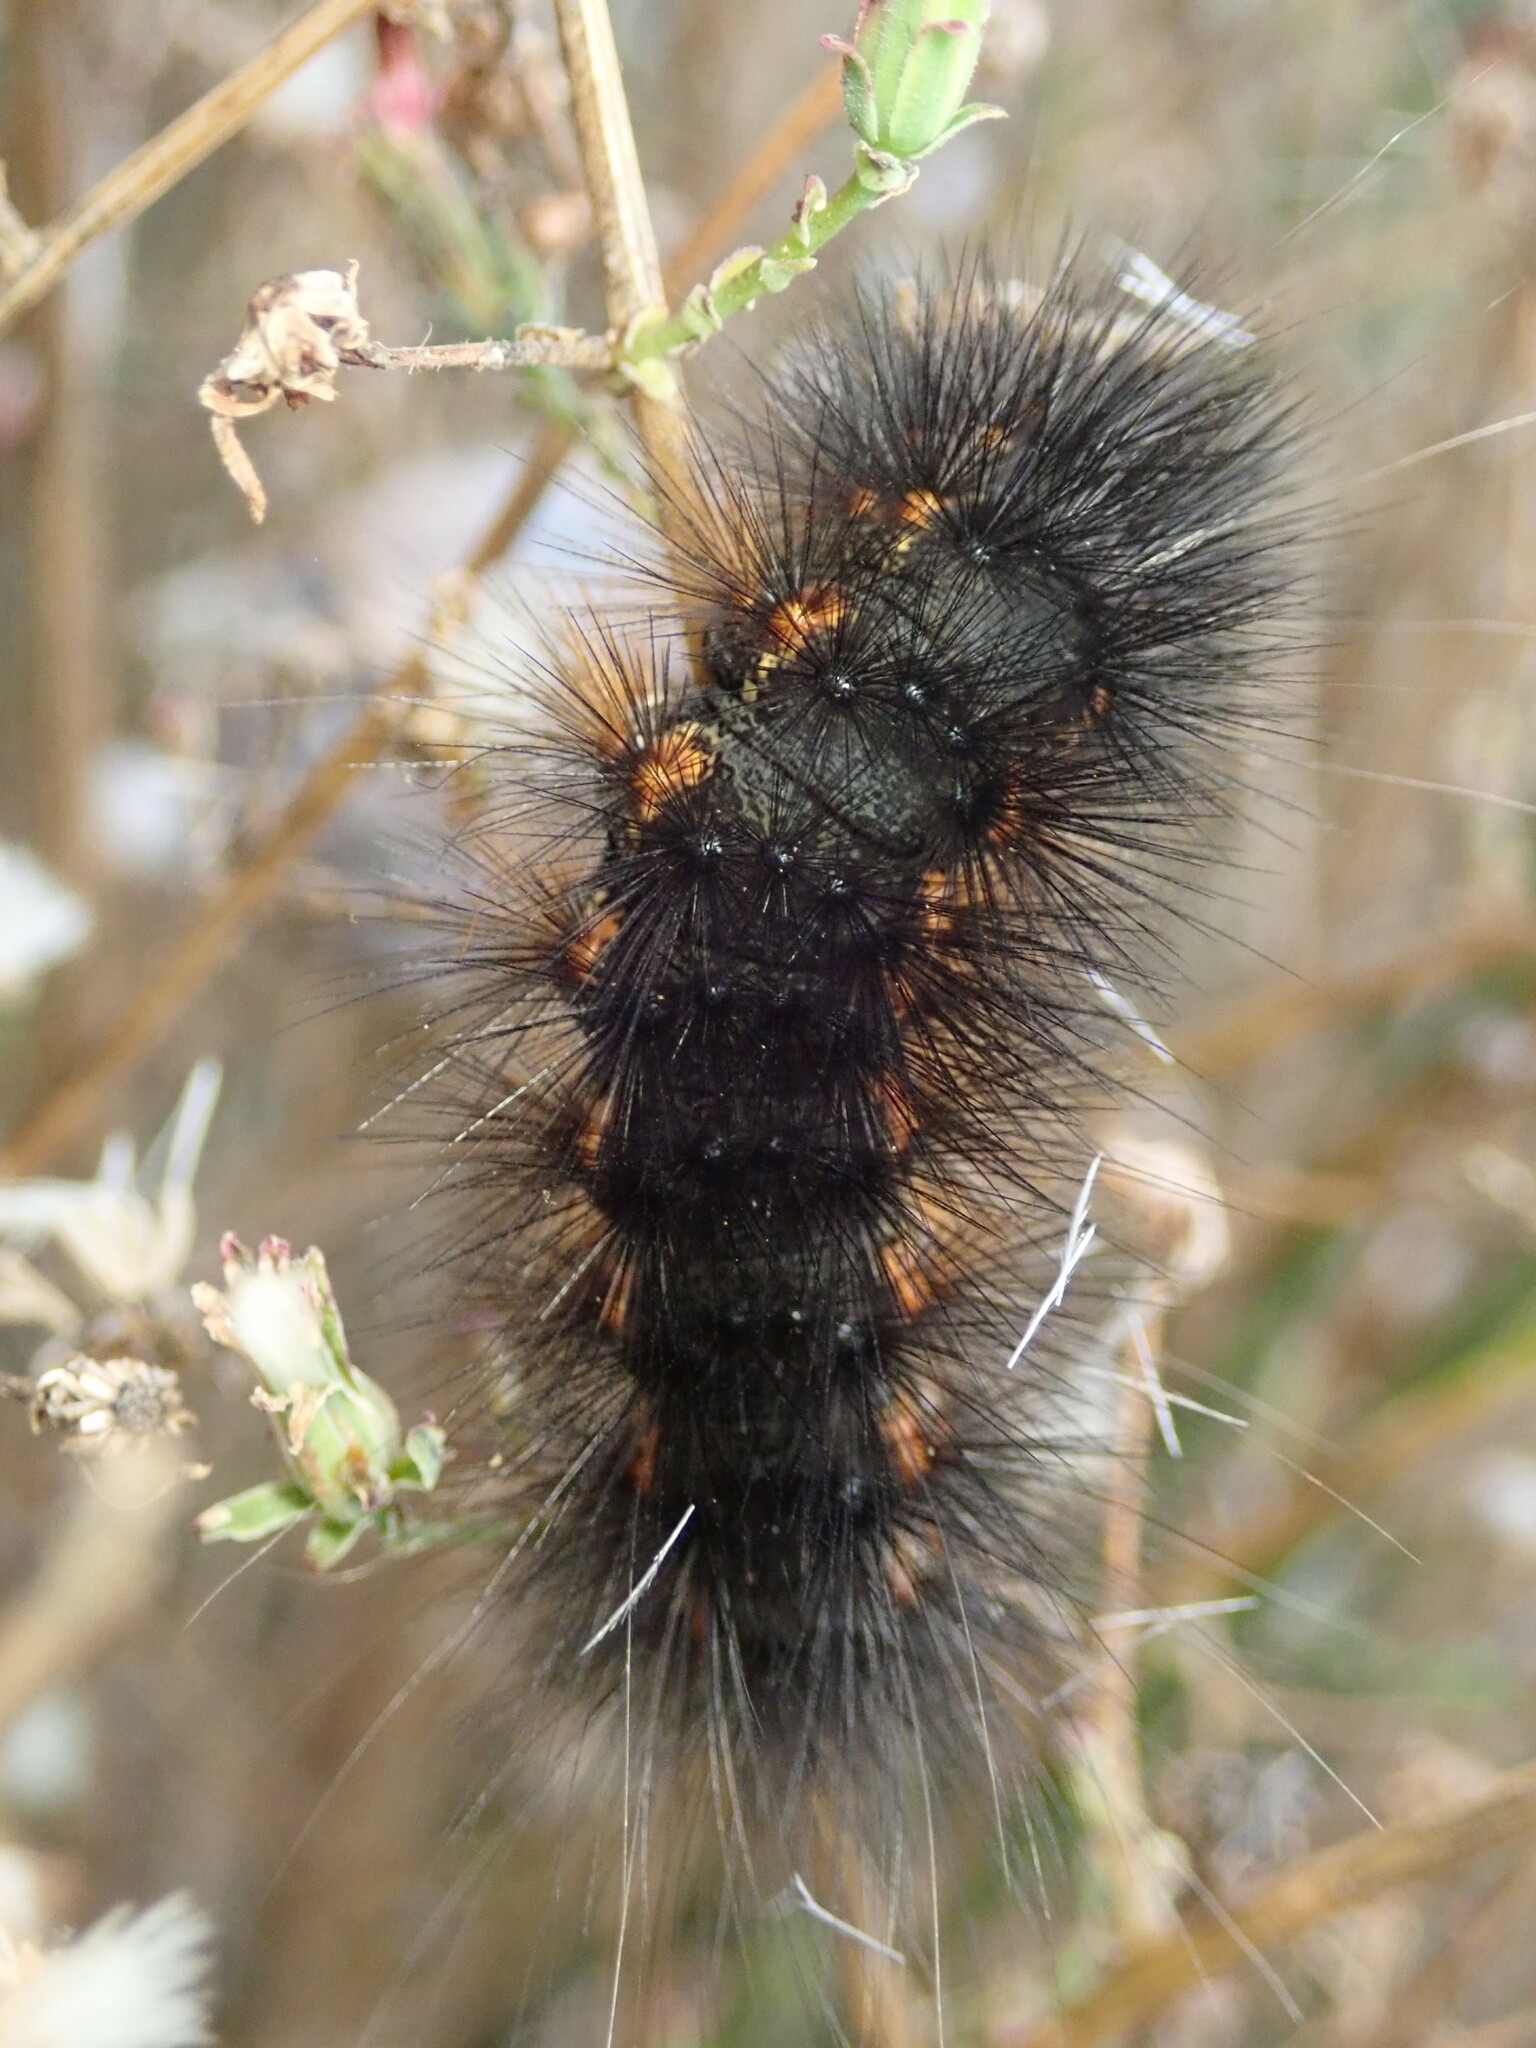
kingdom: Animalia
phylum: Arthropoda
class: Insecta
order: Lepidoptera
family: Erebidae
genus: Estigmene
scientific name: Estigmene acrea
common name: Salt marsh moth
